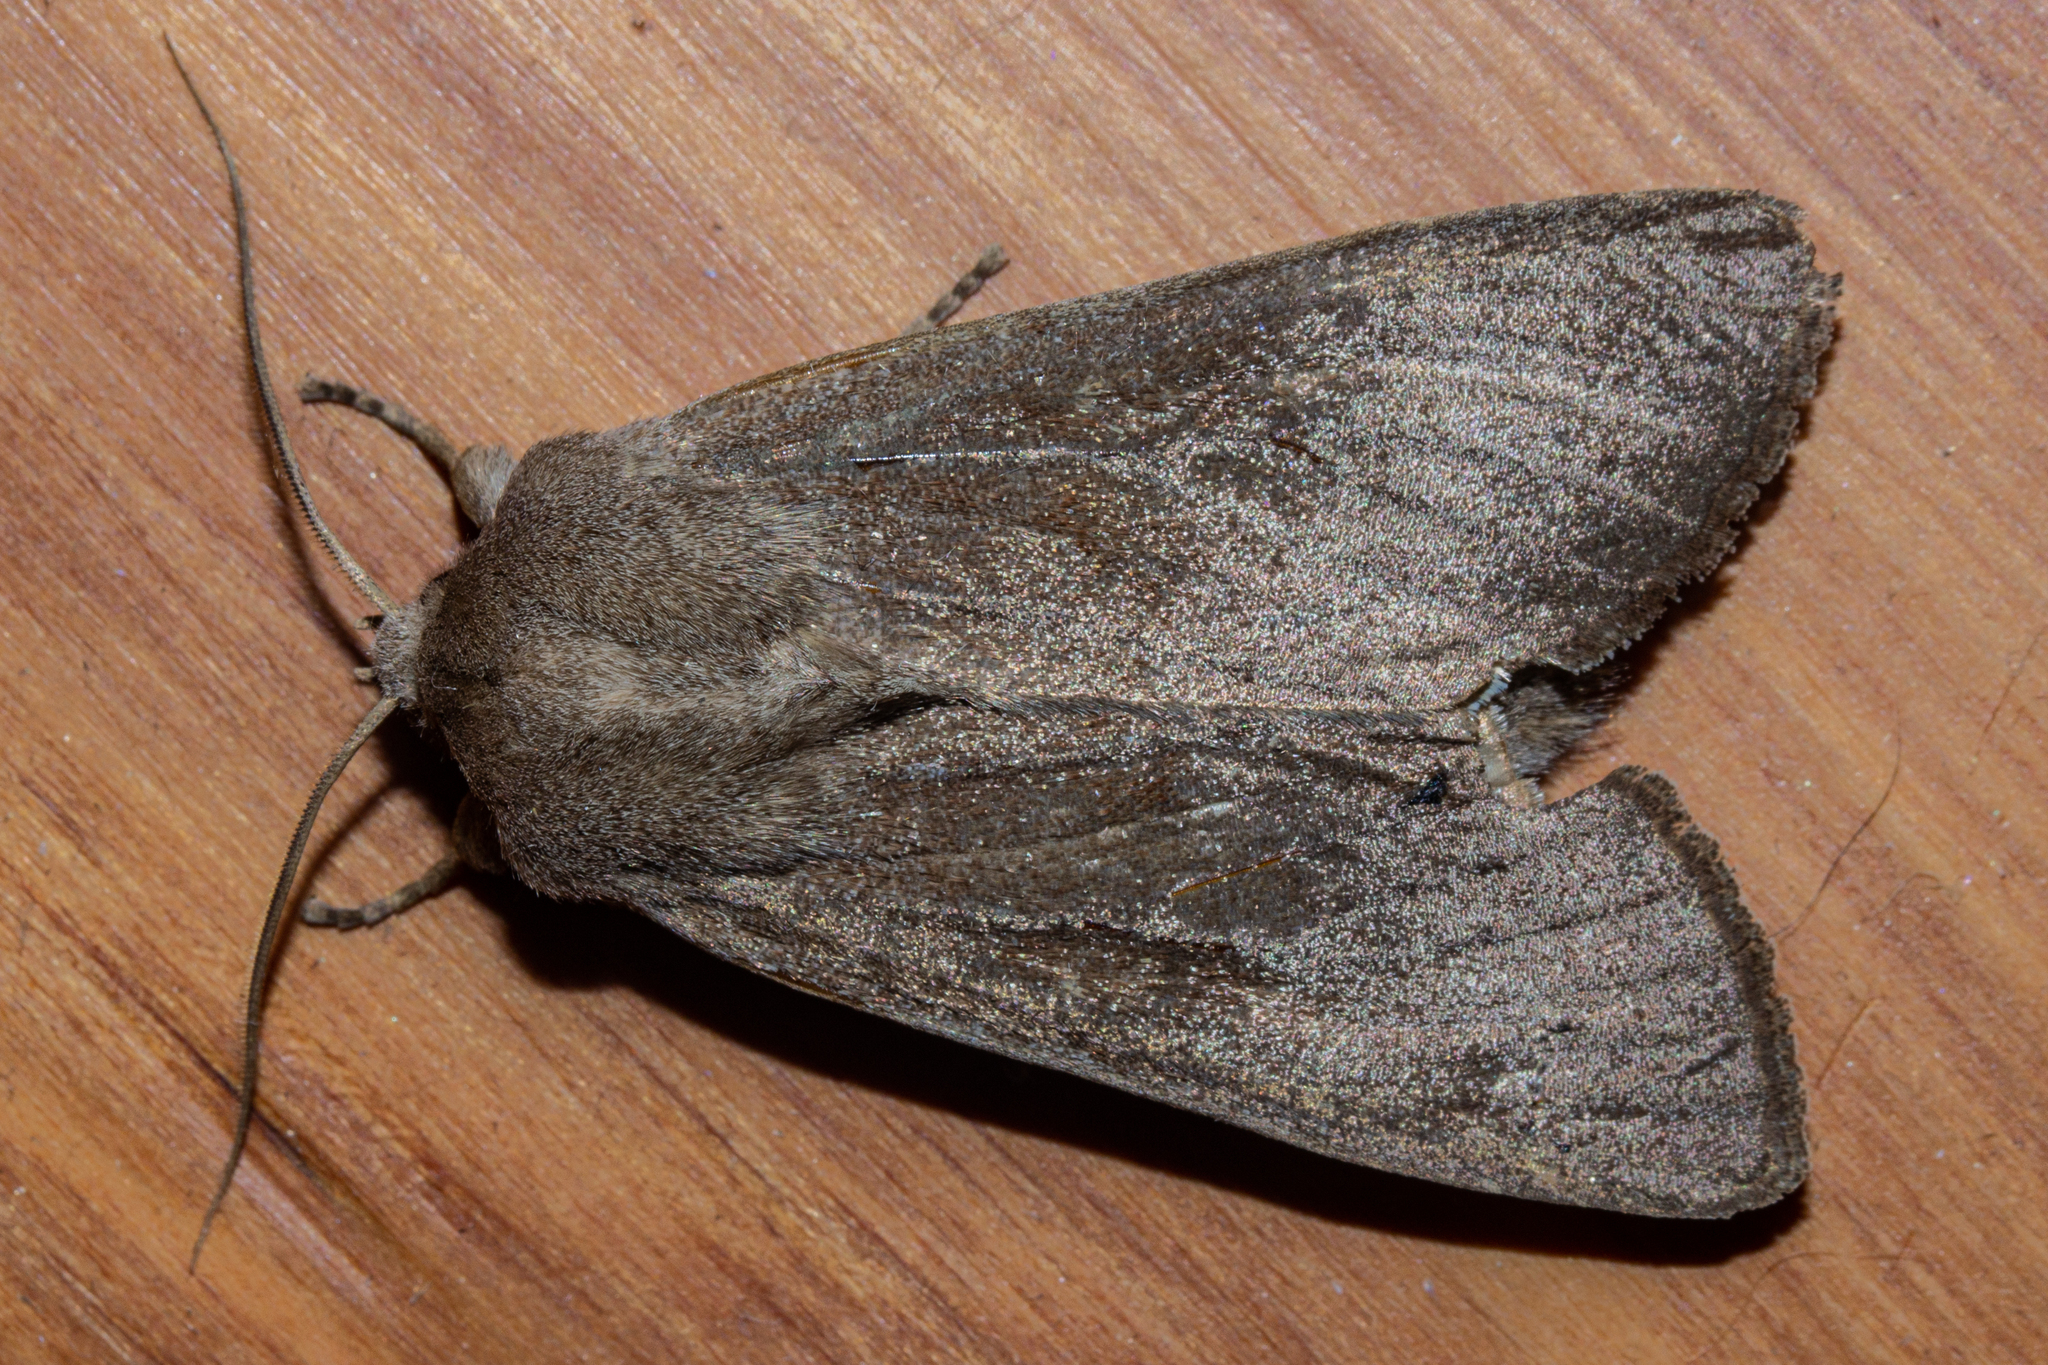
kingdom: Animalia
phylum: Arthropoda
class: Insecta
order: Lepidoptera
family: Noctuidae
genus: Ichneutica
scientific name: Ichneutica nullifera
